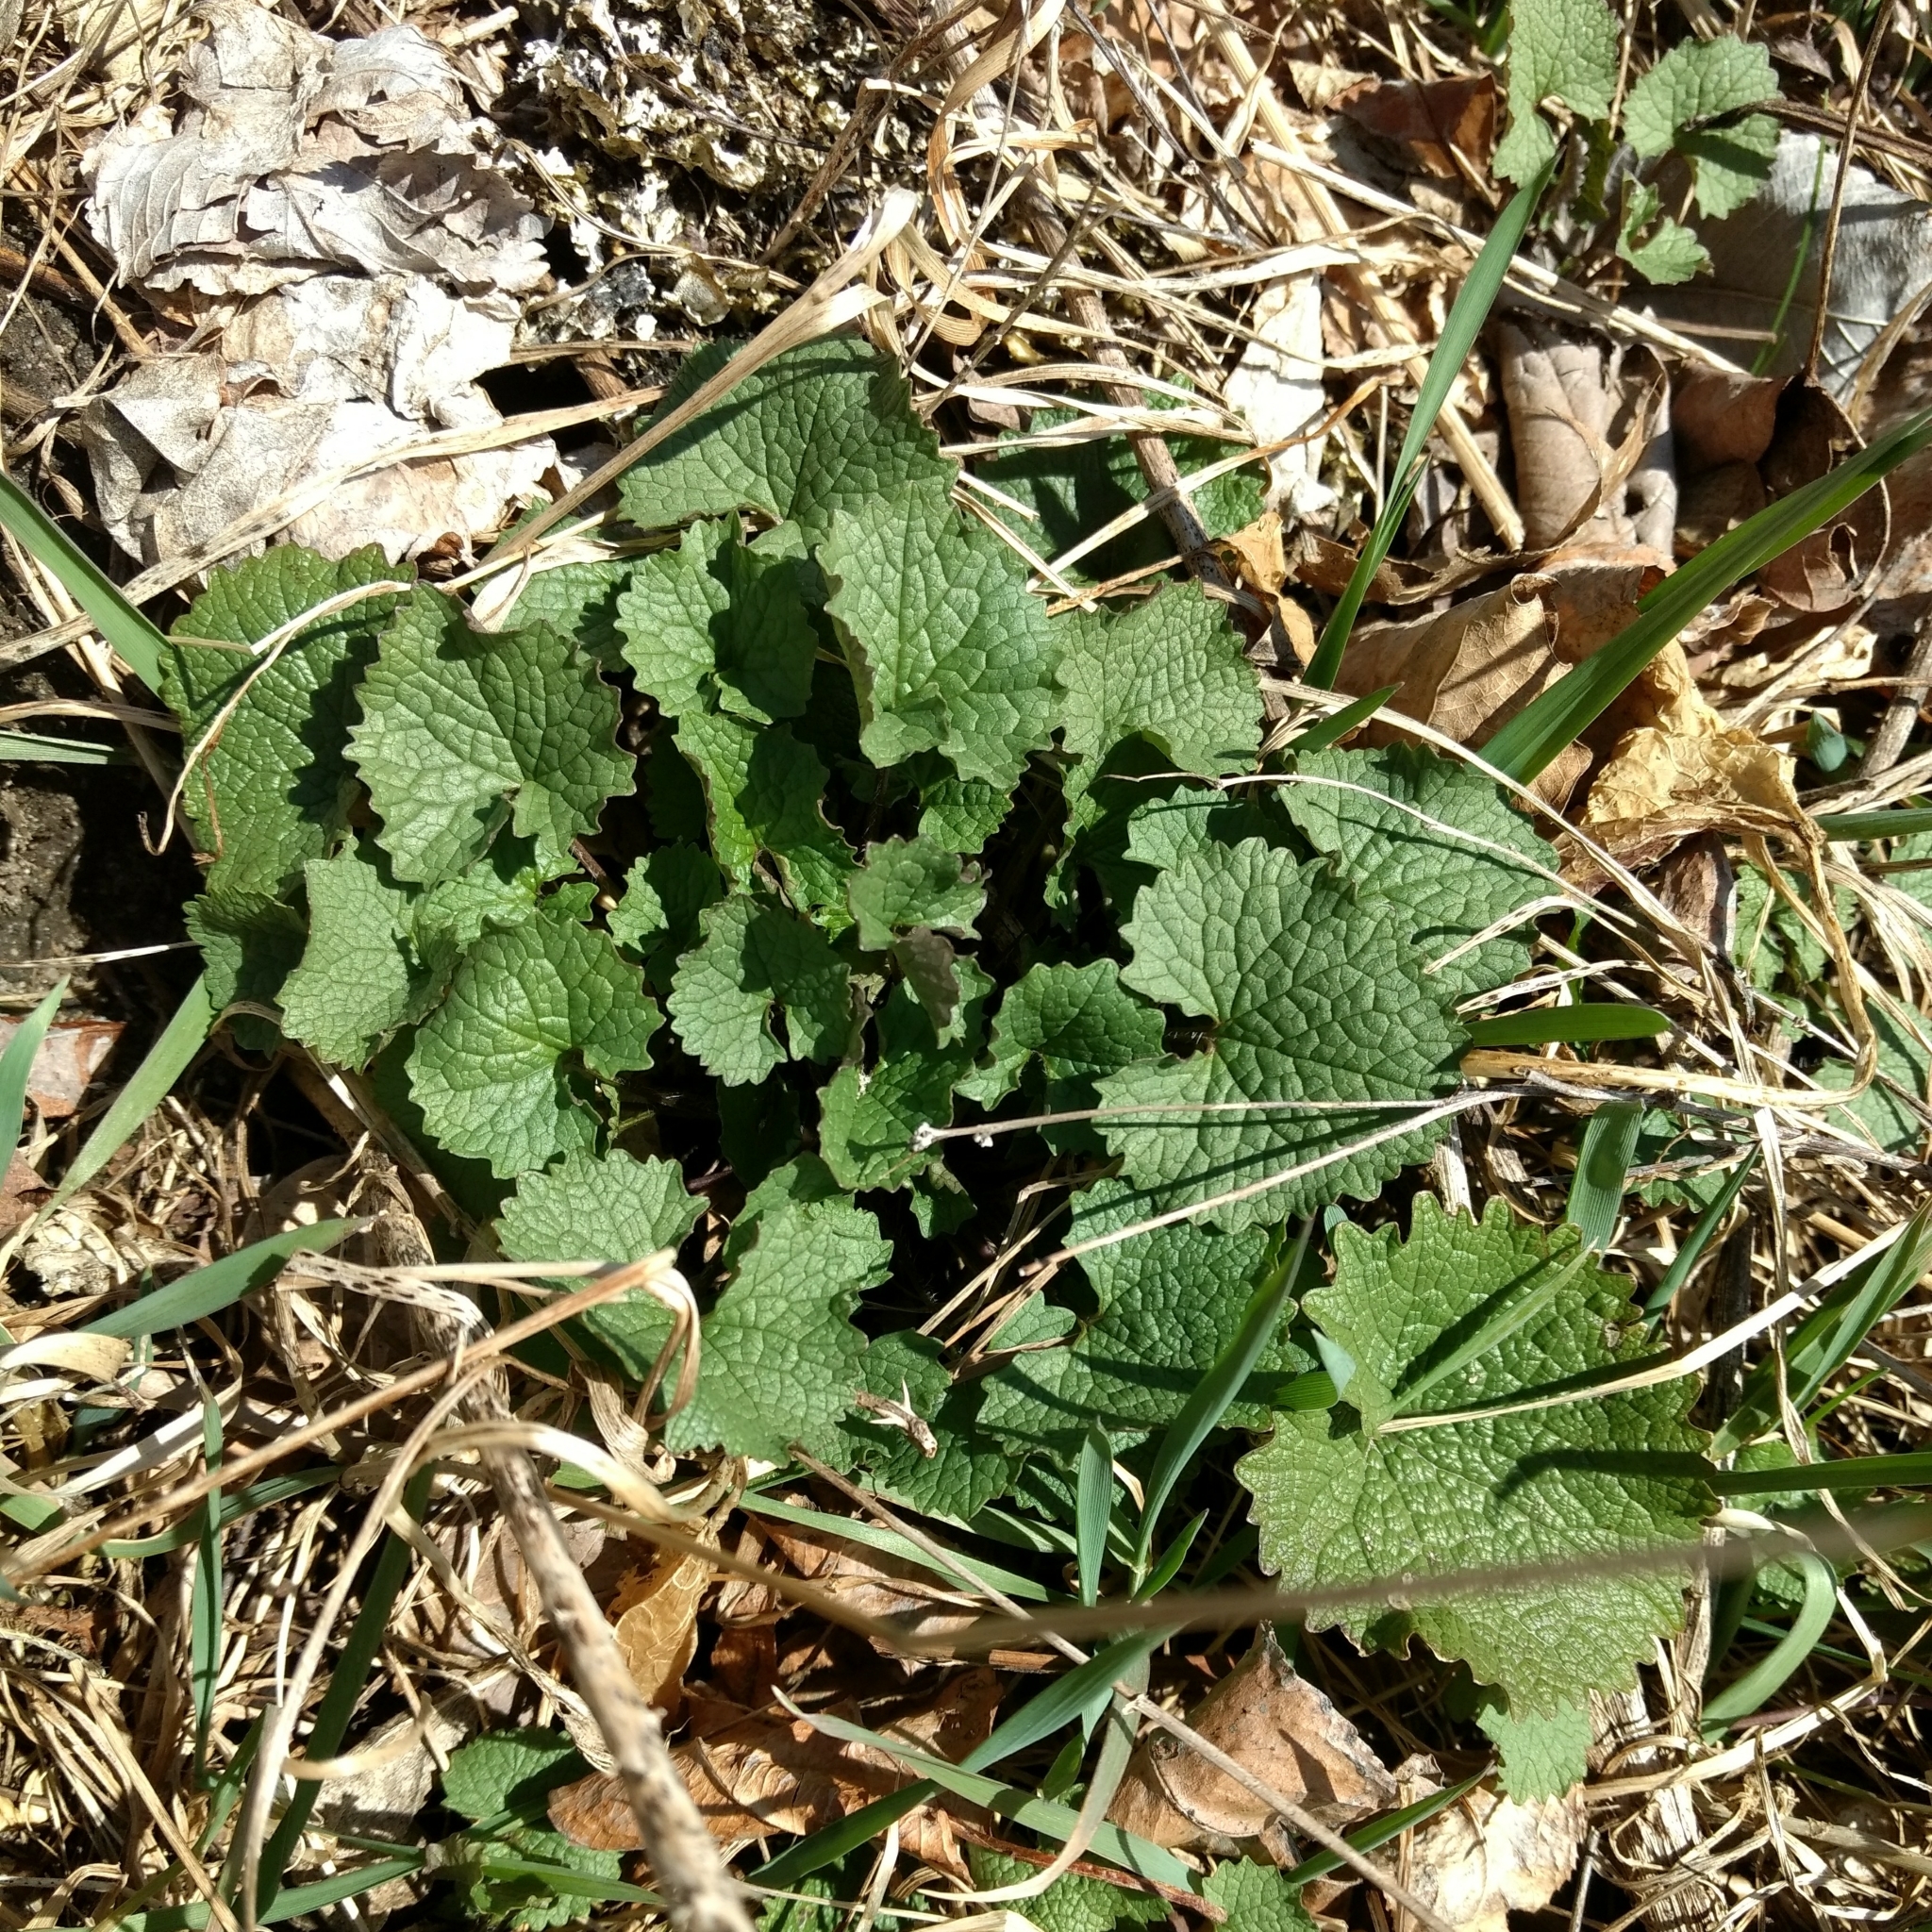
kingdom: Plantae
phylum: Tracheophyta
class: Magnoliopsida
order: Brassicales
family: Brassicaceae
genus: Alliaria
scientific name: Alliaria petiolata
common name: Garlic mustard
